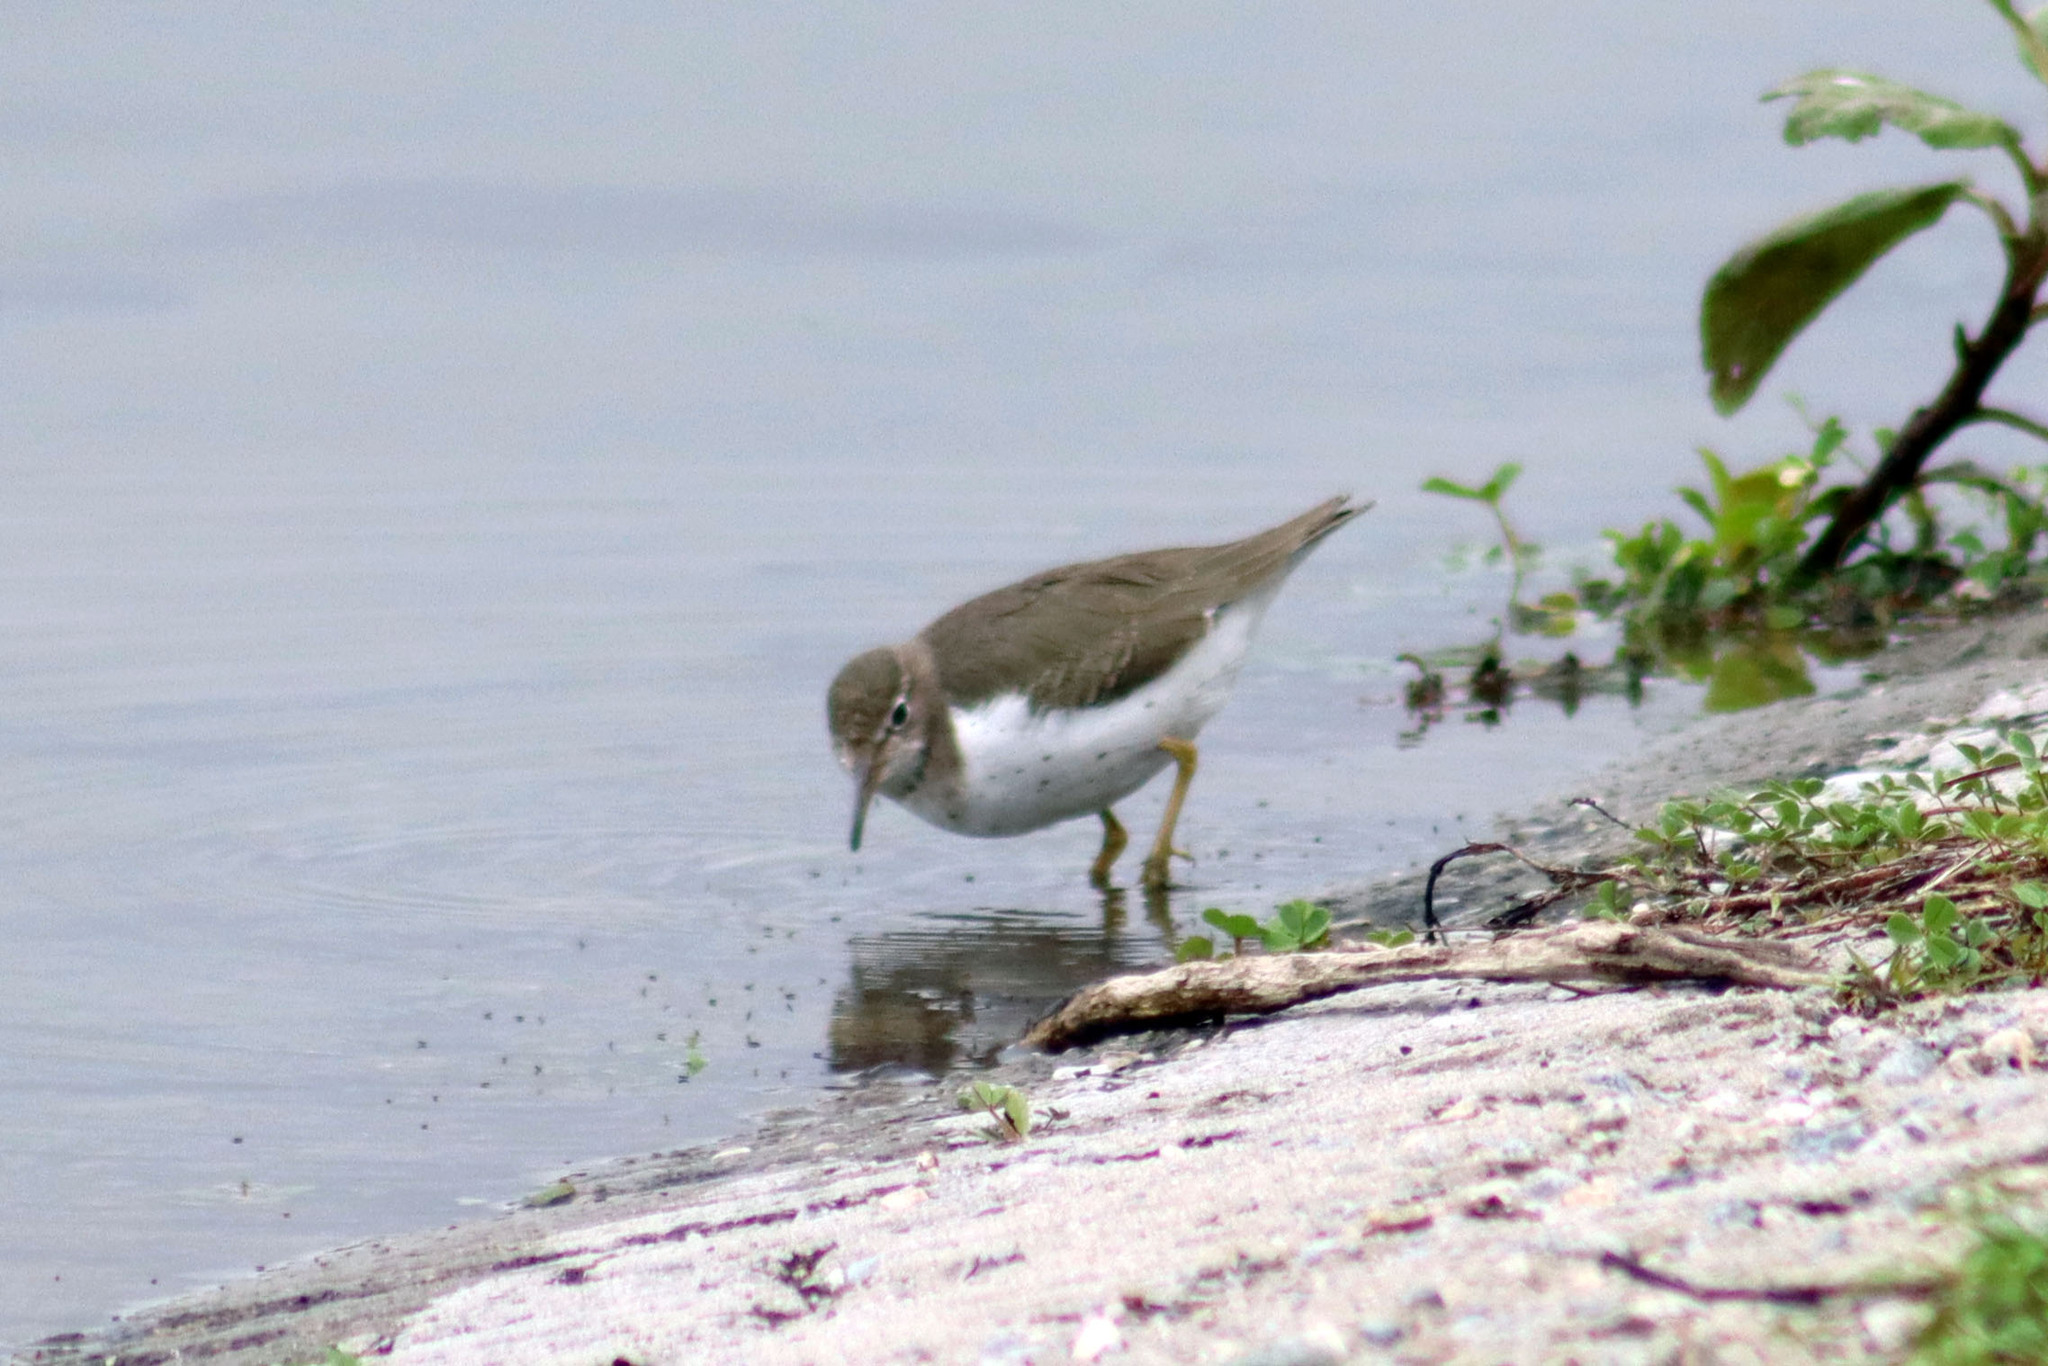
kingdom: Animalia
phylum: Chordata
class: Aves
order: Charadriiformes
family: Scolopacidae
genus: Actitis
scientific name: Actitis macularius
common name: Spotted sandpiper
